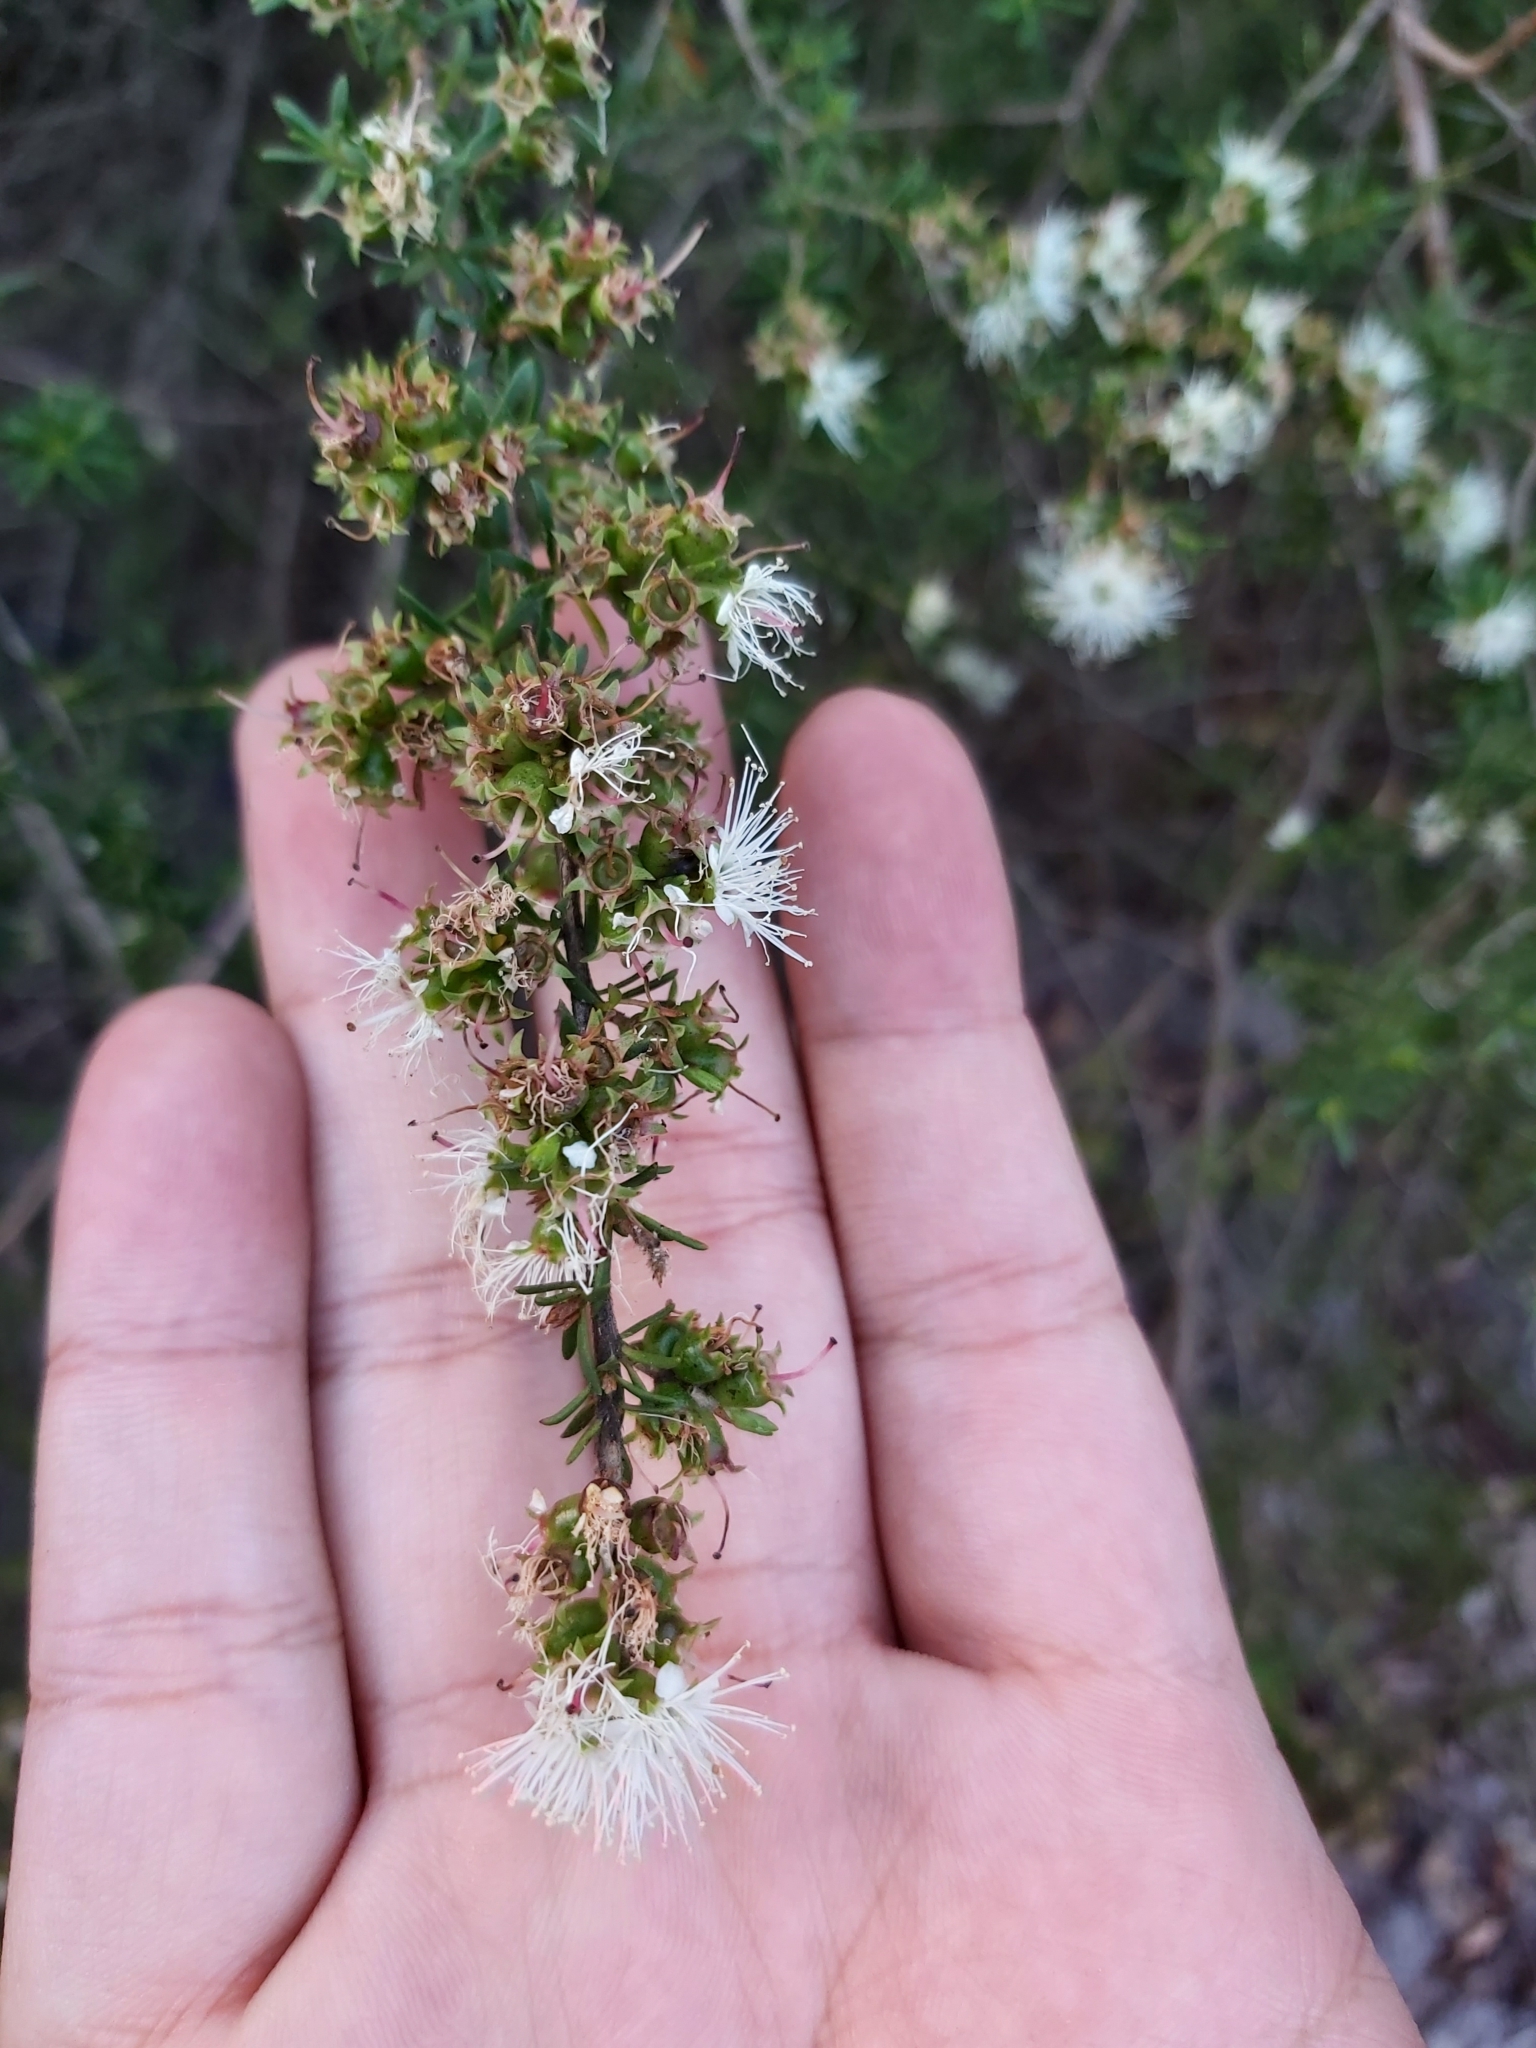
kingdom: Plantae
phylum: Tracheophyta
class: Magnoliopsida
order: Myrtales
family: Myrtaceae
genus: Kunzea
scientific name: Kunzea ambigua
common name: Tickbush
